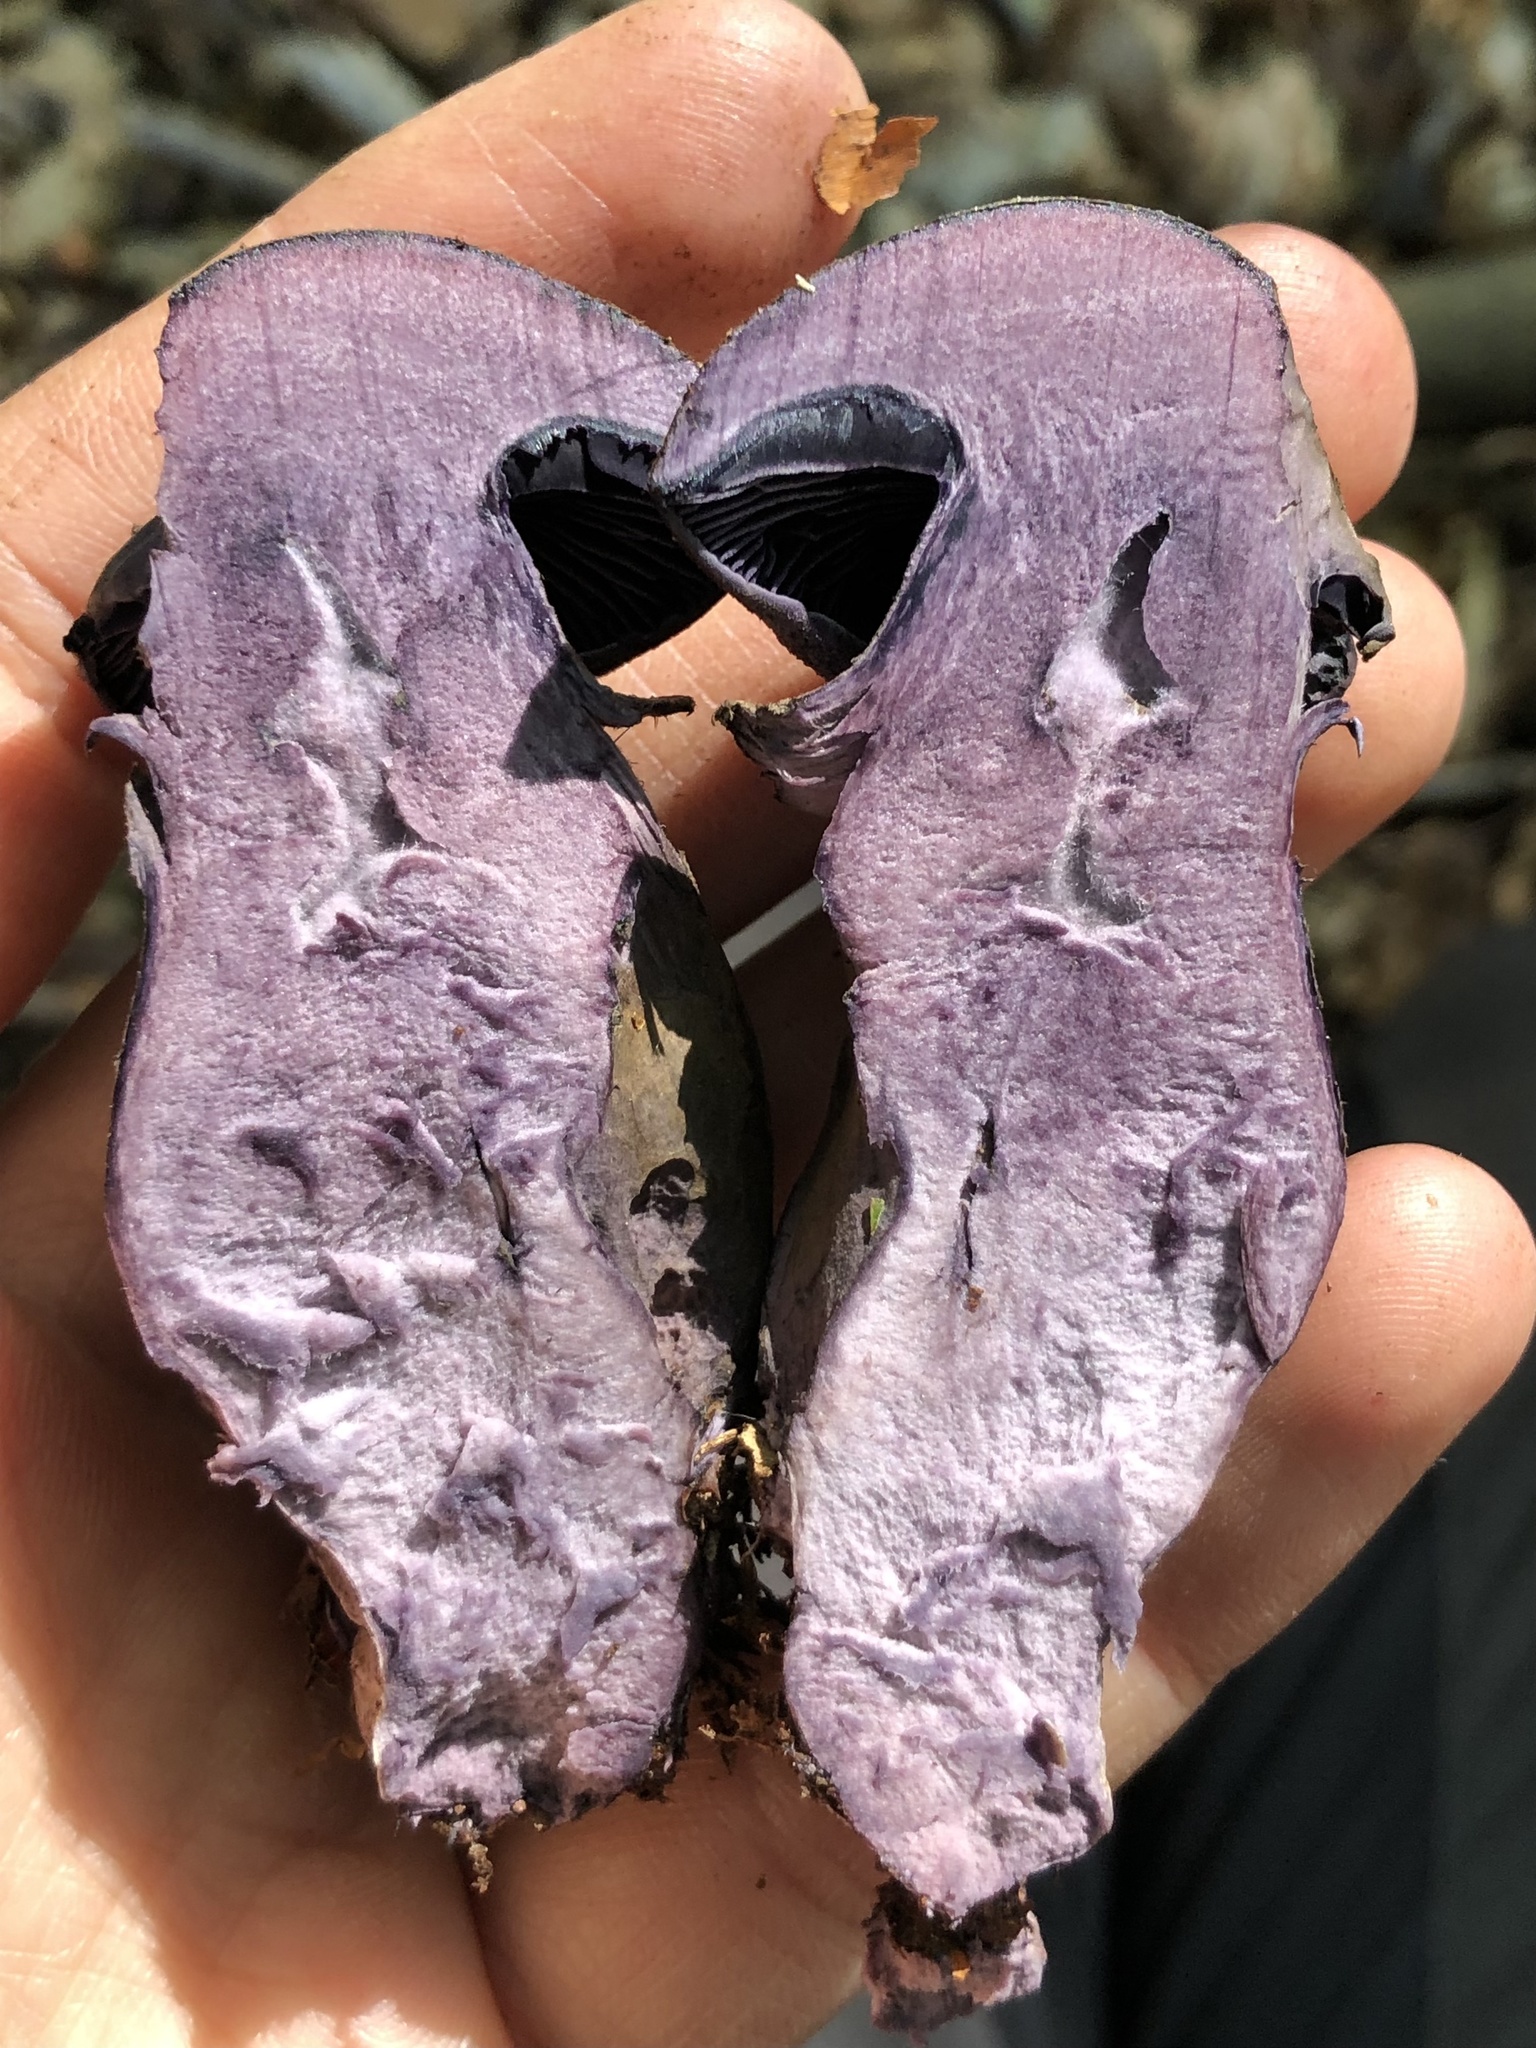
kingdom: Fungi
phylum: Basidiomycota
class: Agaricomycetes
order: Agaricales
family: Cortinariaceae
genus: Cortinarius
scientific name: Cortinarius violaceus
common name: Violet webcap
